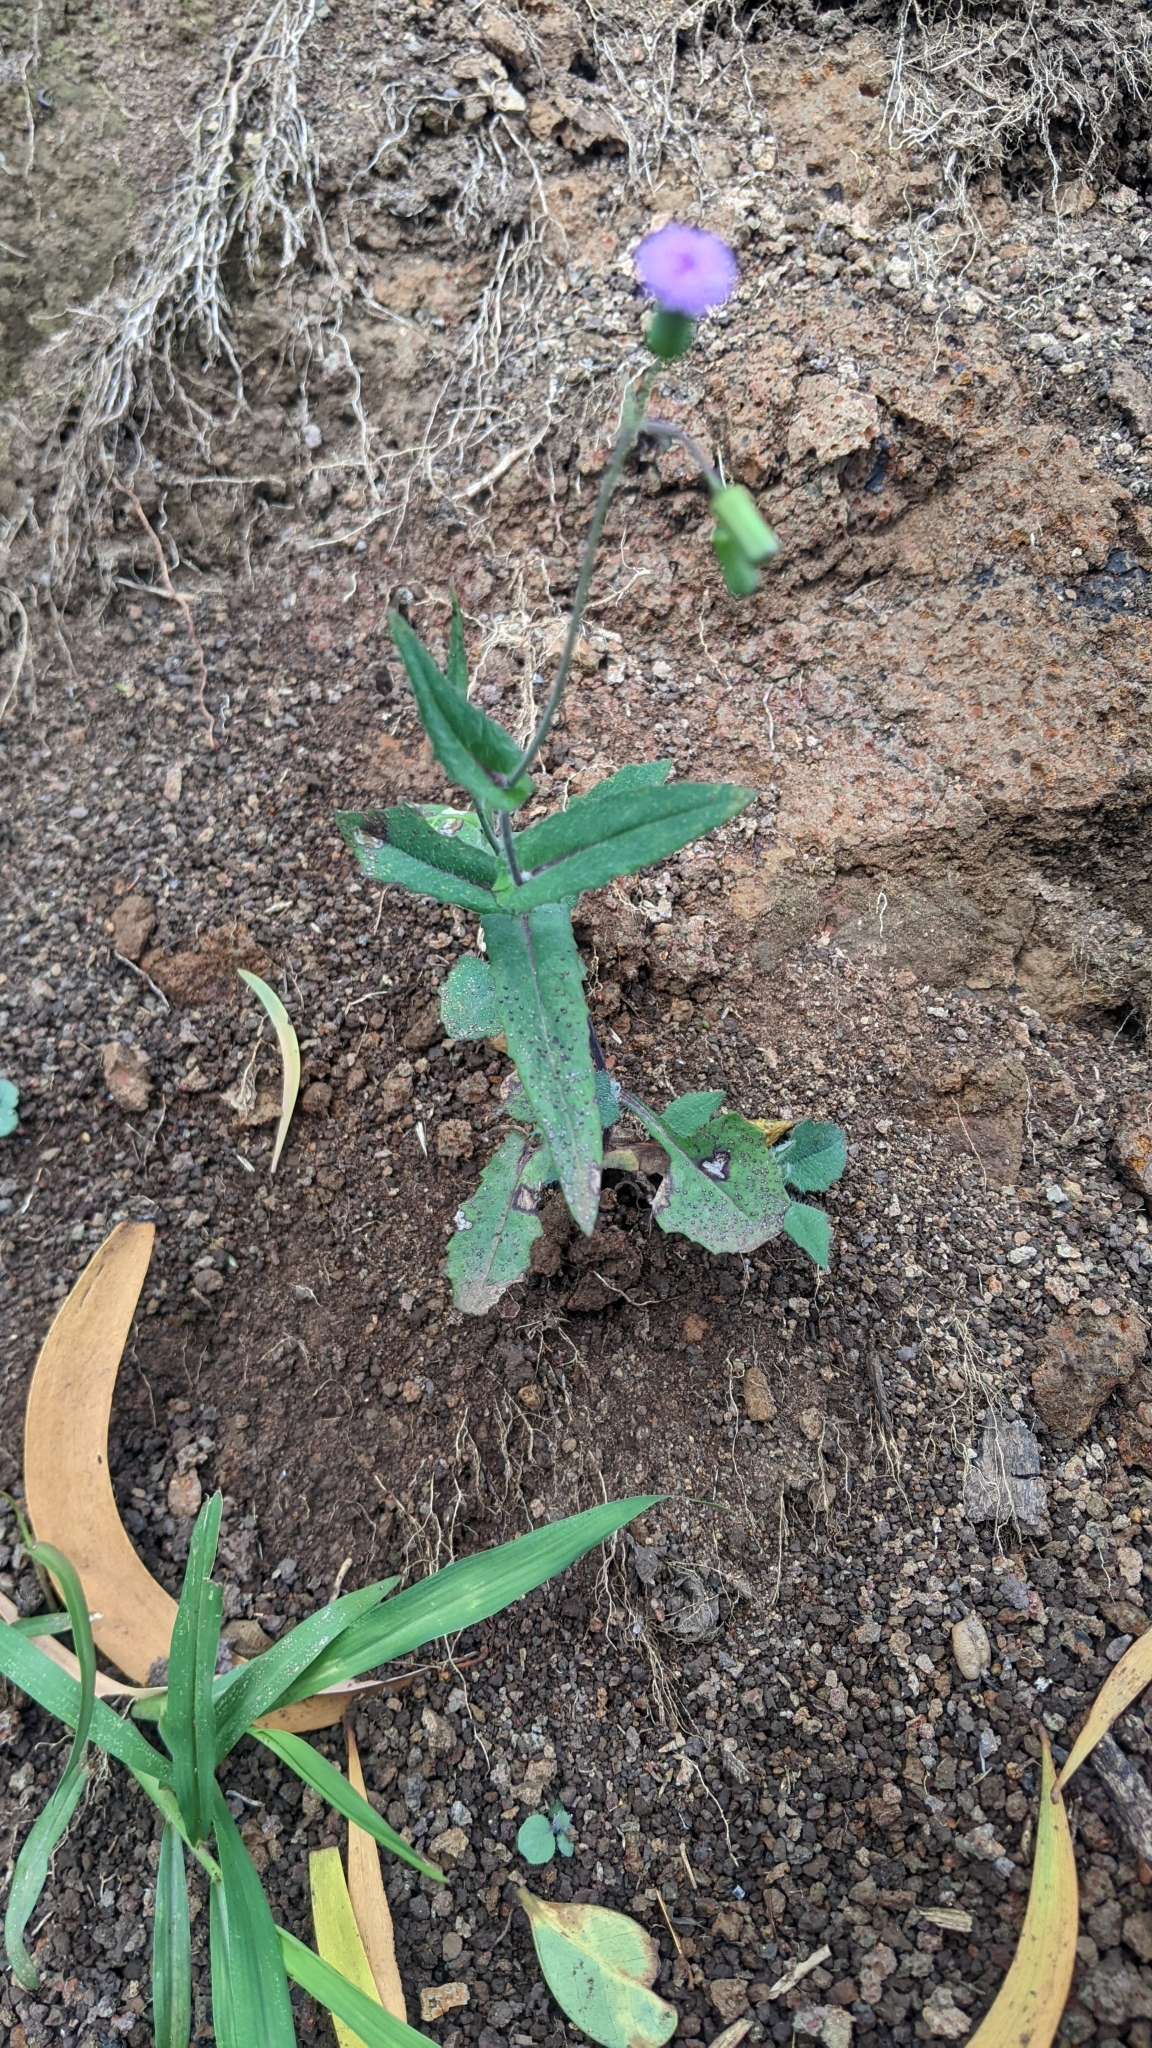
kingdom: Plantae
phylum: Tracheophyta
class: Magnoliopsida
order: Asterales
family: Asteraceae
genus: Emilia
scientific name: Emilia sonchifolia
